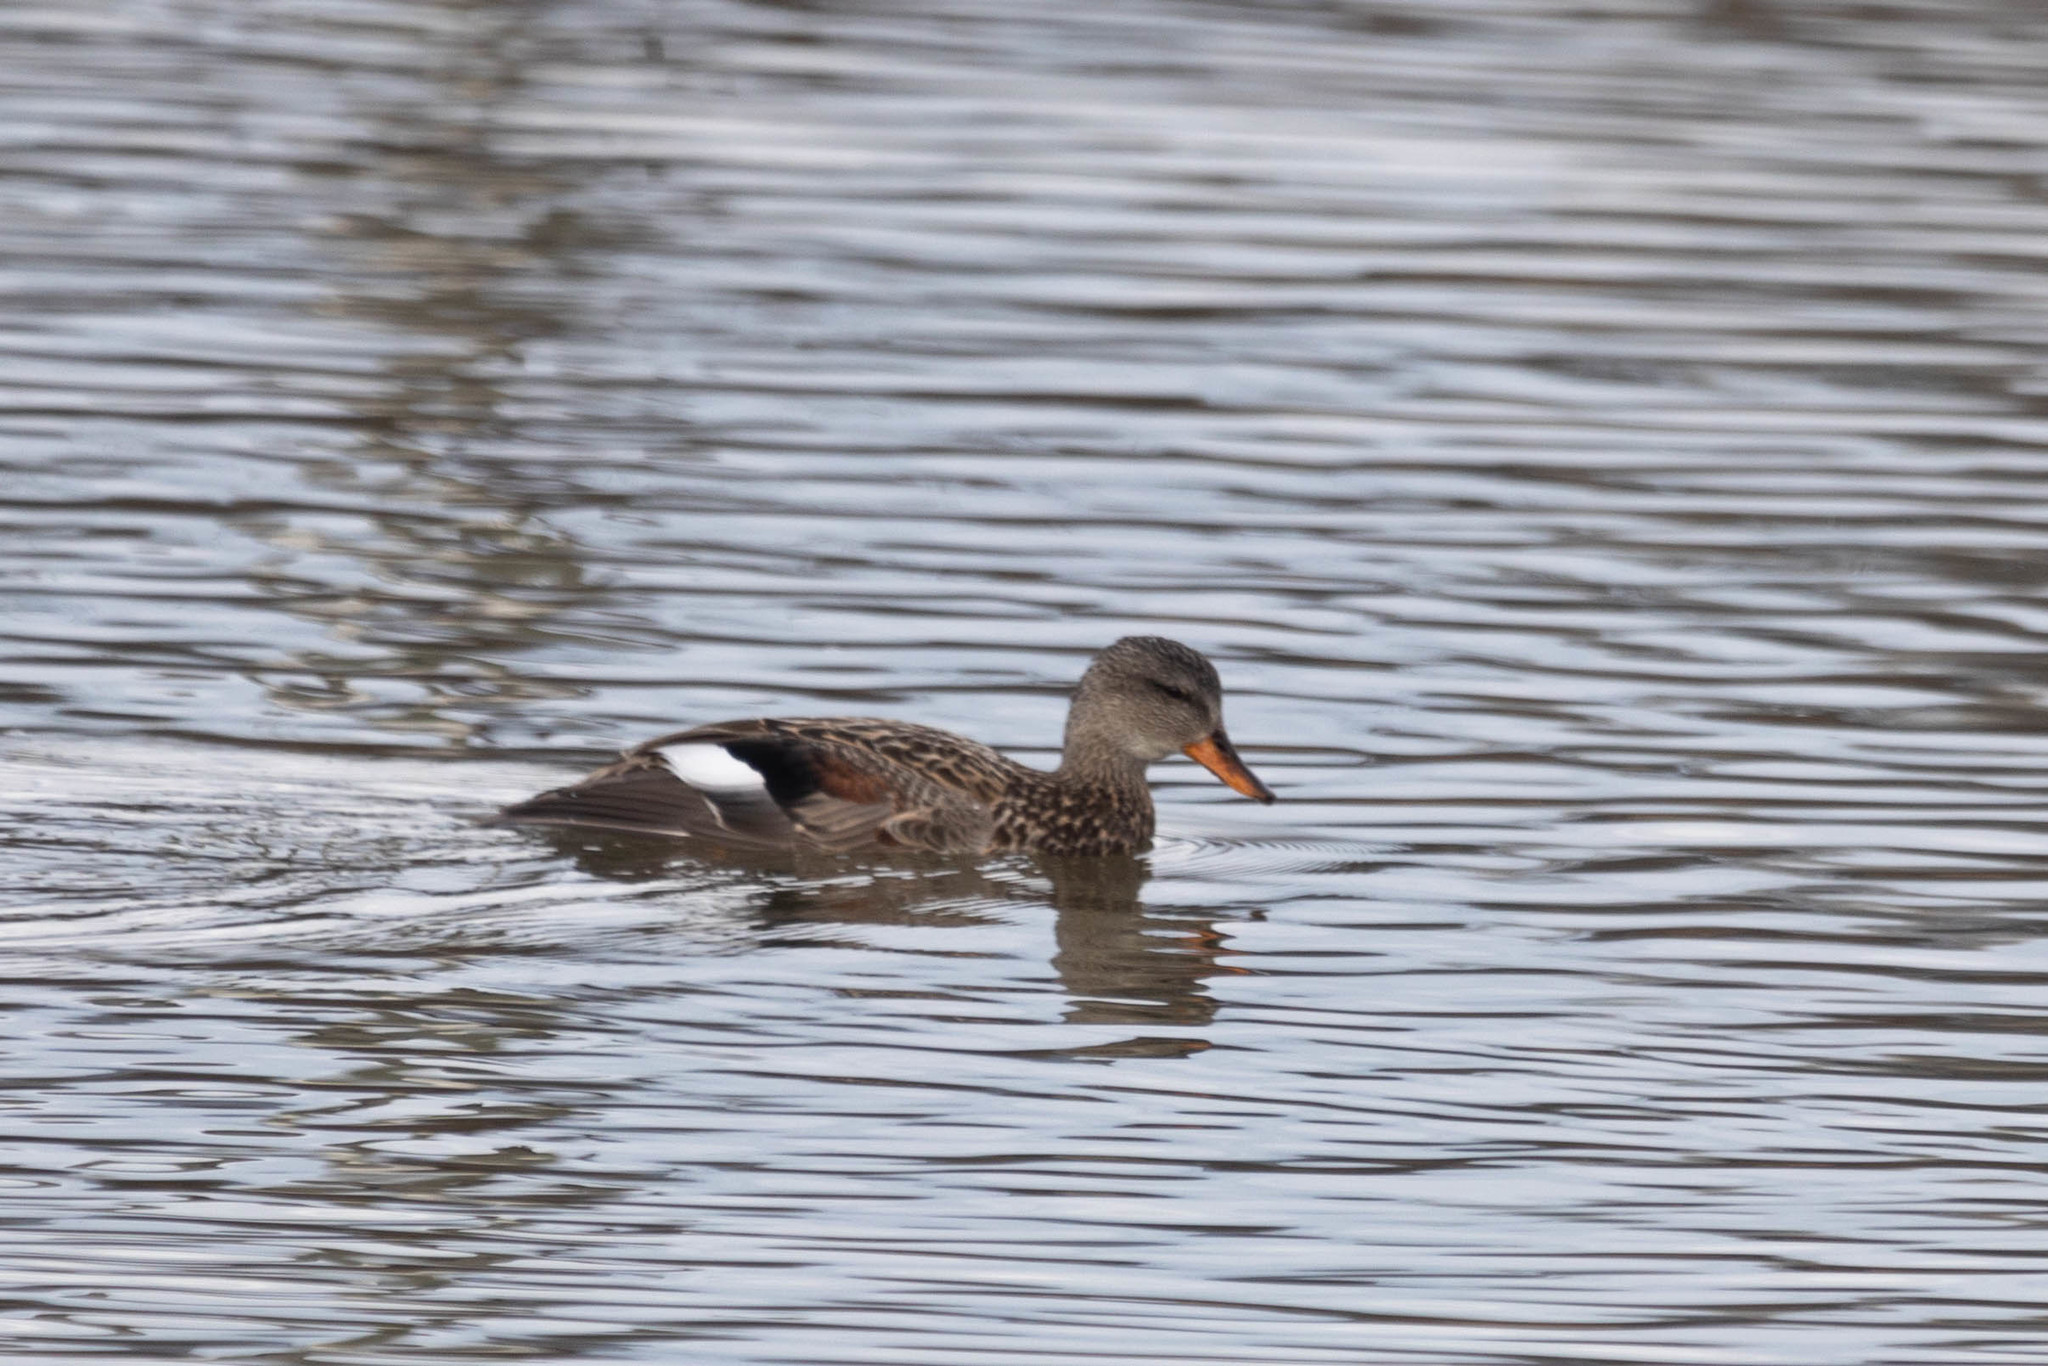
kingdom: Animalia
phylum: Chordata
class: Aves
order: Anseriformes
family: Anatidae
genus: Mareca
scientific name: Mareca strepera
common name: Gadwall
